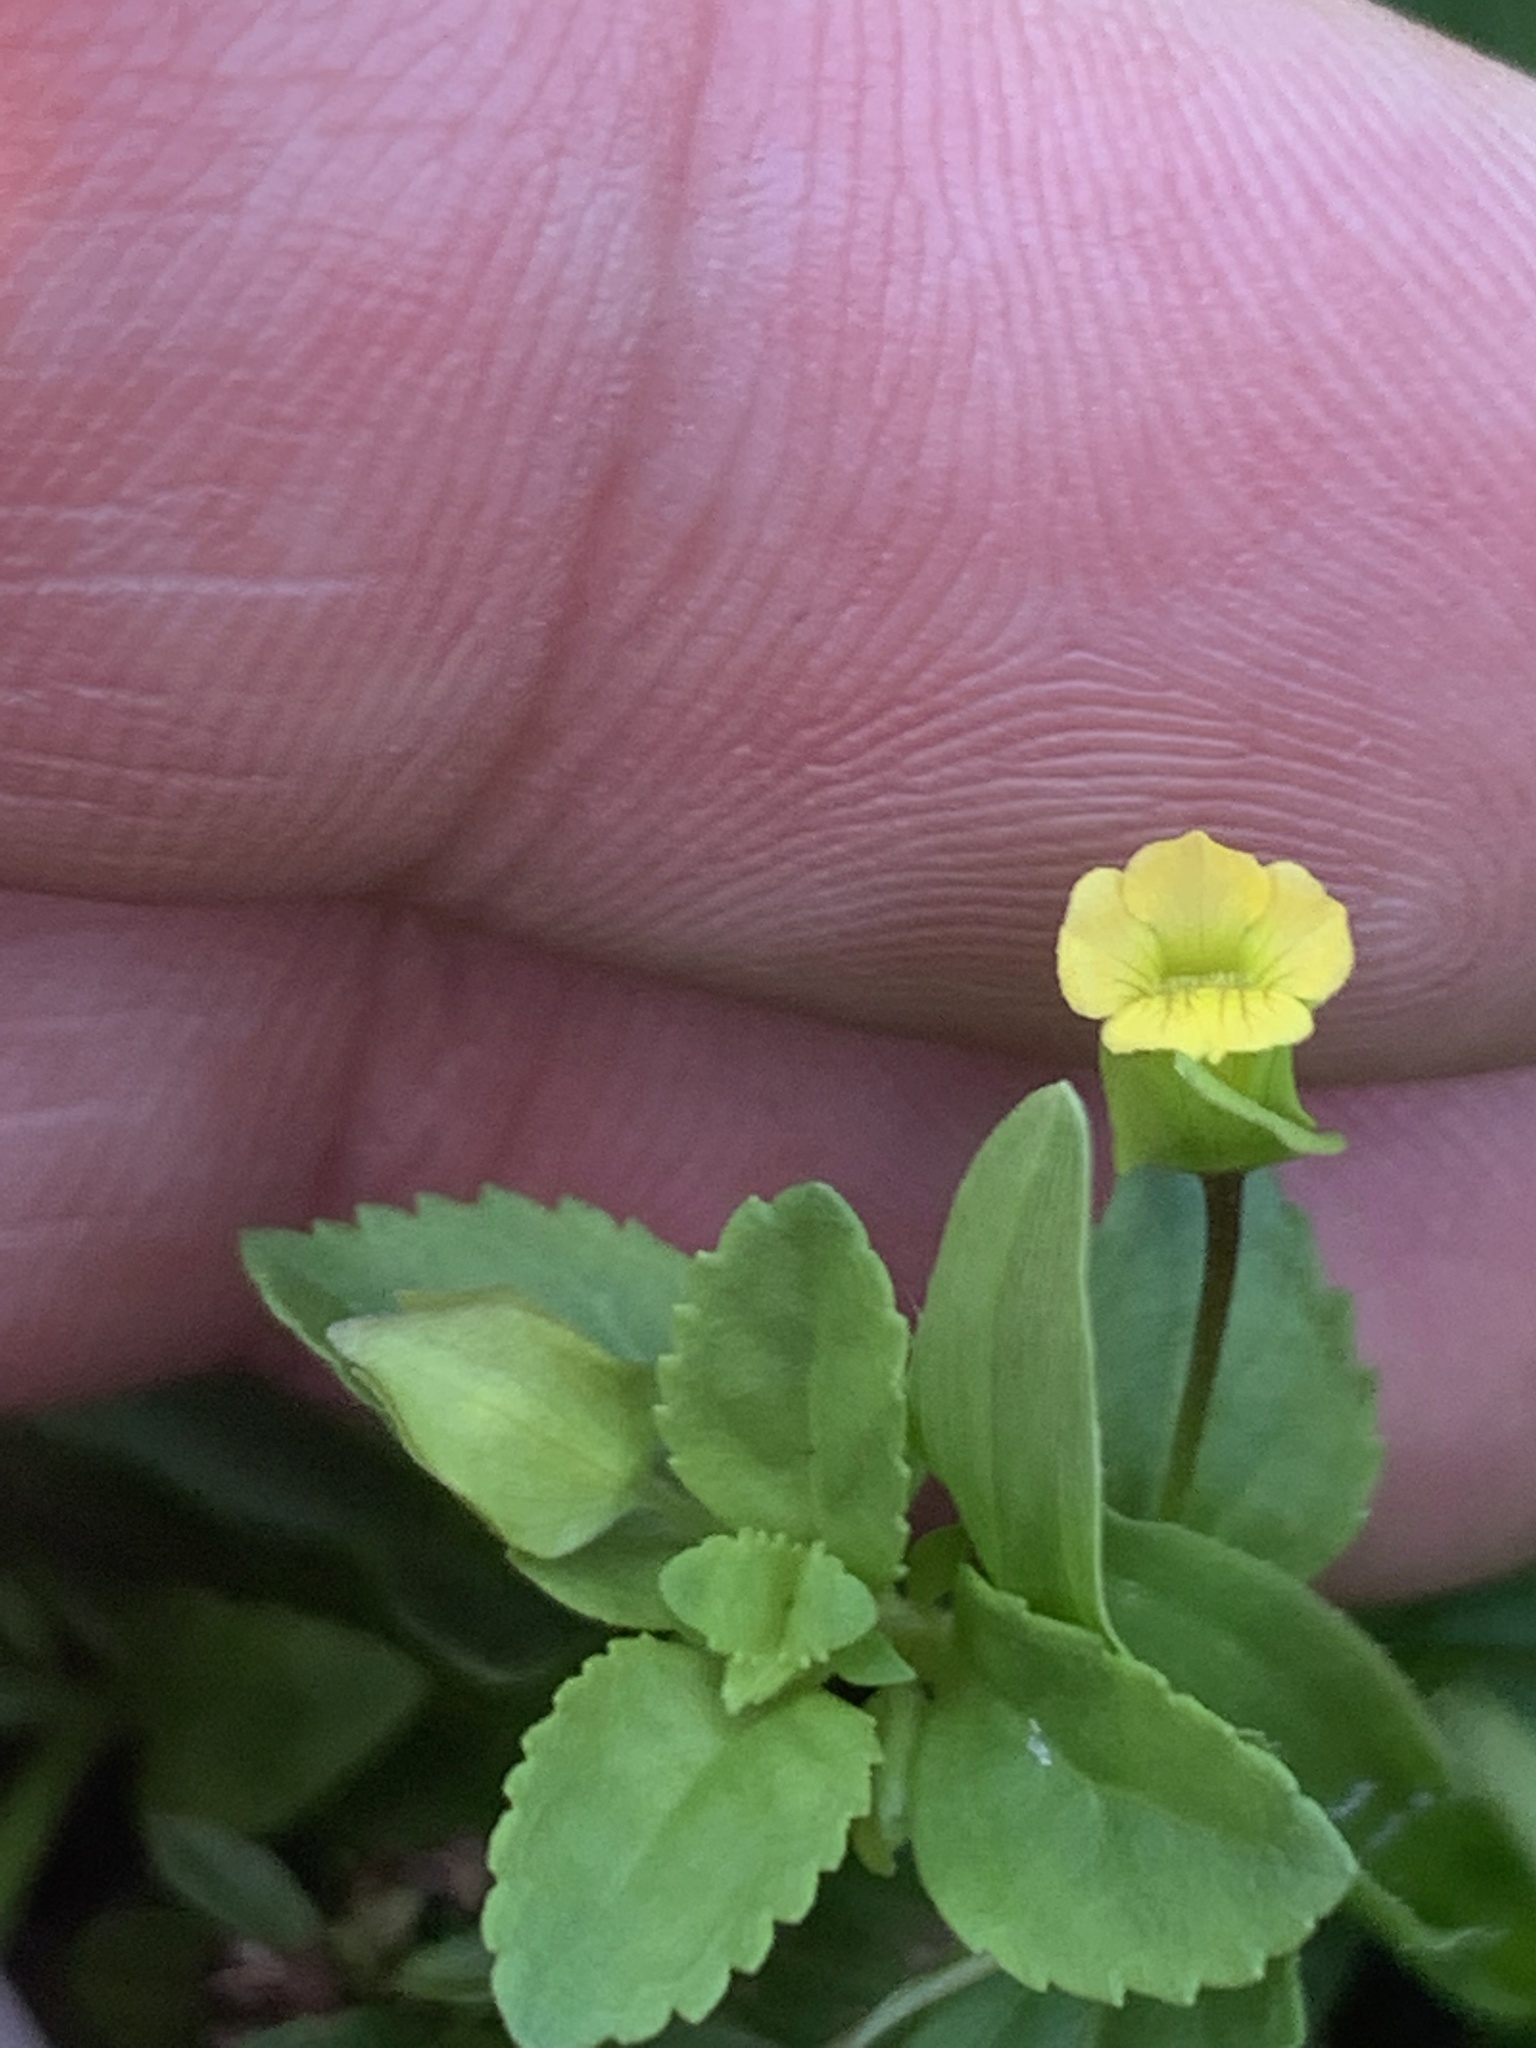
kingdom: Plantae
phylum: Tracheophyta
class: Magnoliopsida
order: Lamiales
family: Plantaginaceae
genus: Mecardonia
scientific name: Mecardonia procumbens
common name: Baby jump-up
